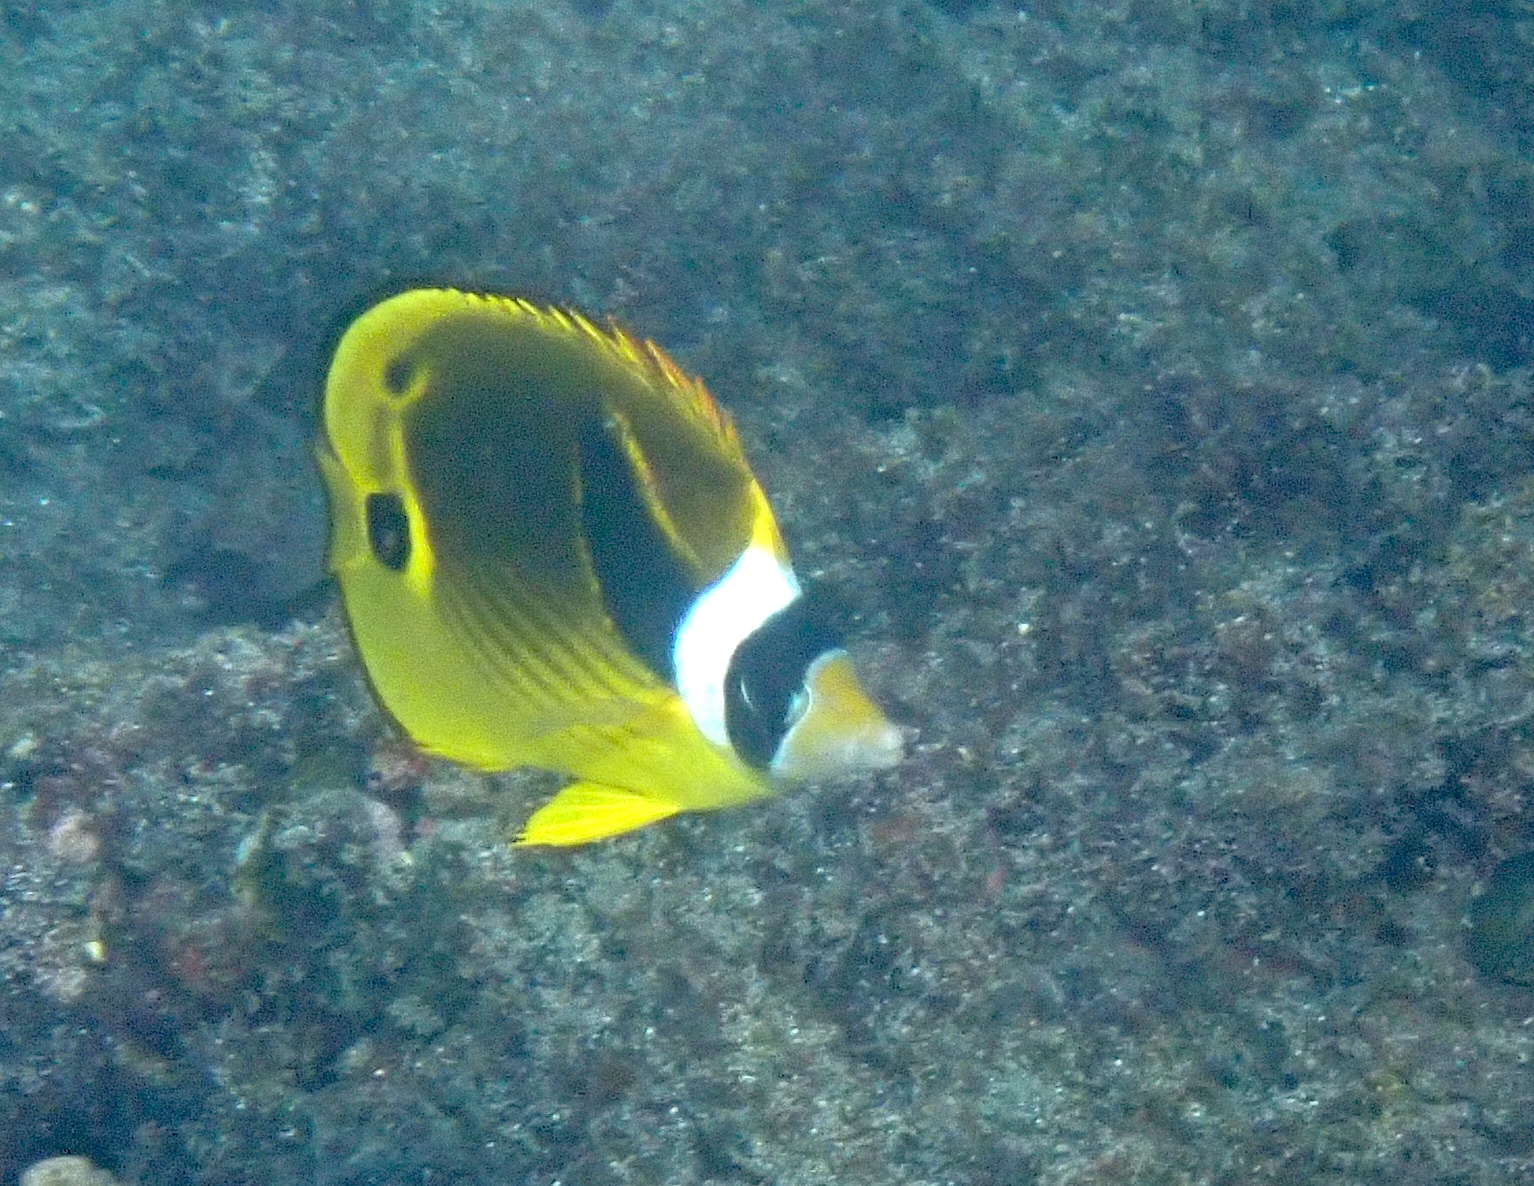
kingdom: Animalia
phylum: Chordata
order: Perciformes
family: Chaetodontidae
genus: Chaetodon
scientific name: Chaetodon lunula
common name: Raccoon butterflyfish
